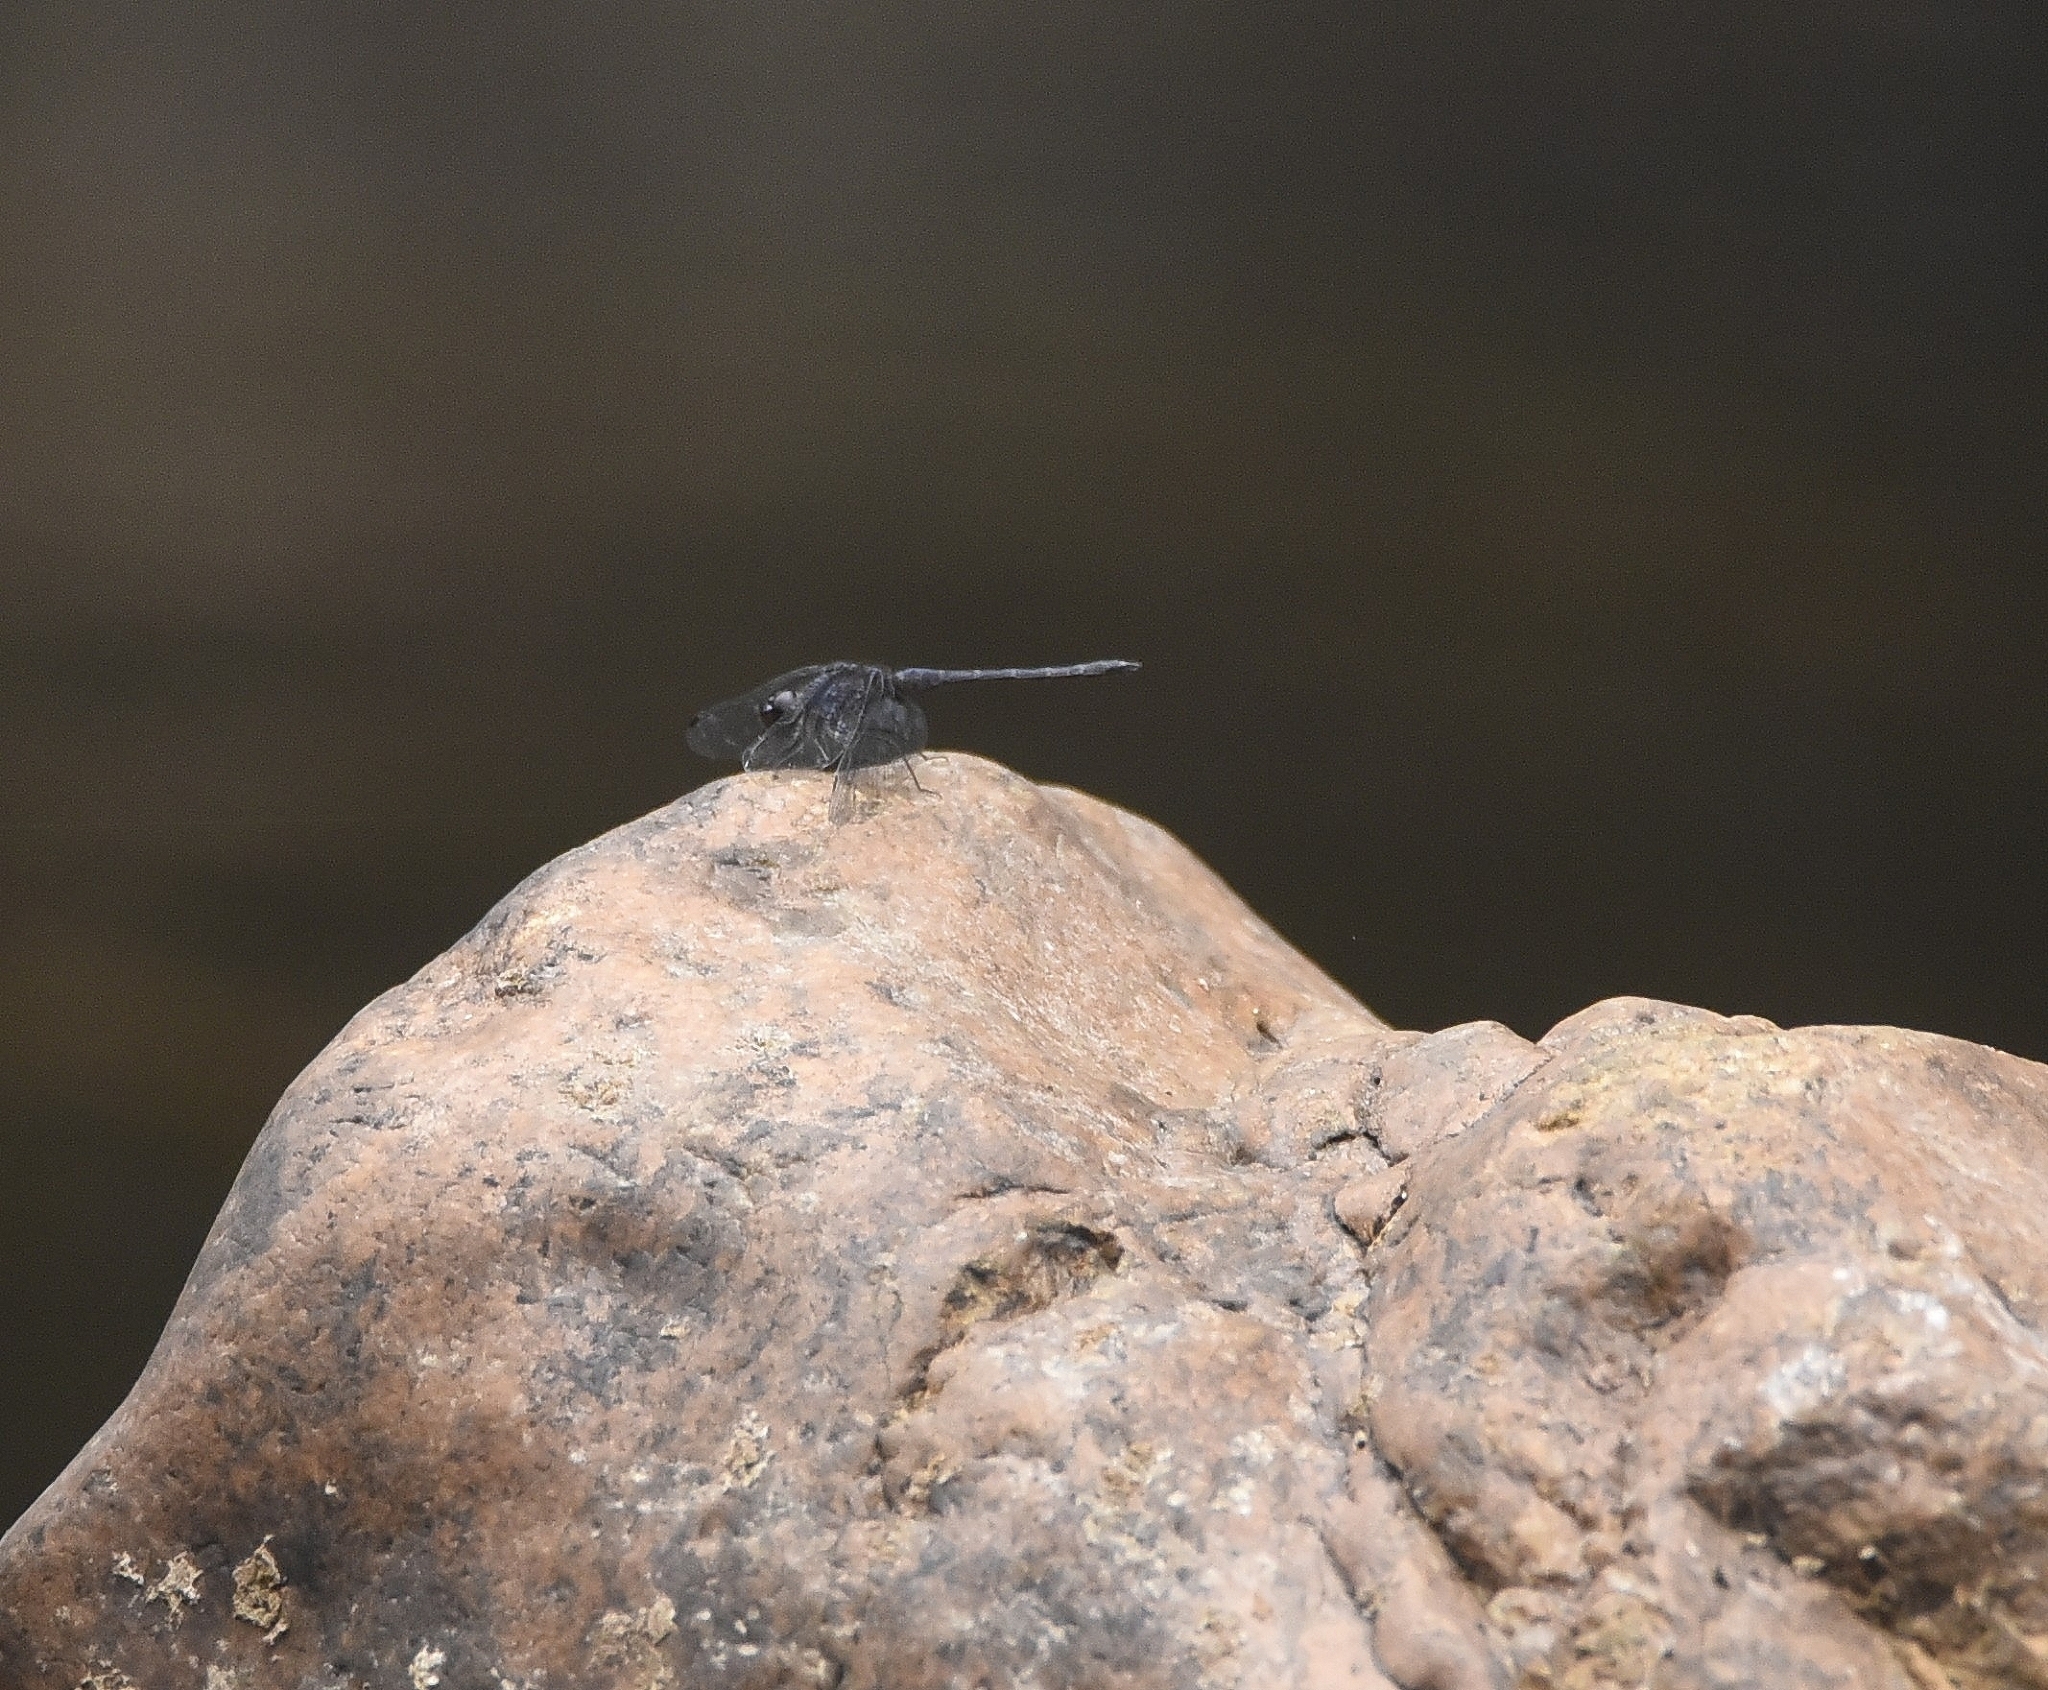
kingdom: Animalia
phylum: Arthropoda
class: Insecta
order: Odonata
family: Libellulidae
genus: Trithemis
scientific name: Trithemis festiva
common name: Indigo dropwing
